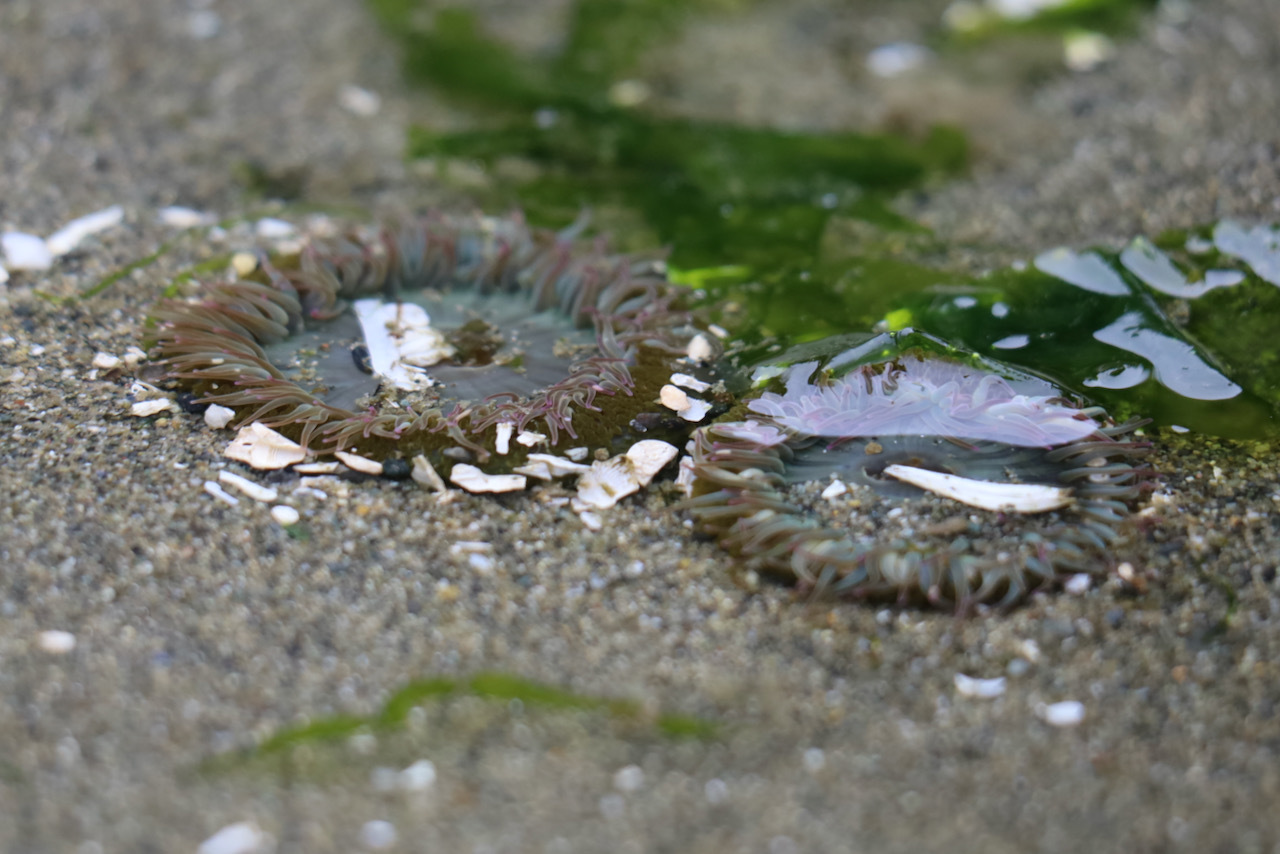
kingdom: Animalia
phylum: Cnidaria
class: Anthozoa
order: Actiniaria
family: Actiniidae
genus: Anthopleura
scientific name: Anthopleura elegantissima
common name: Clonal anemone
